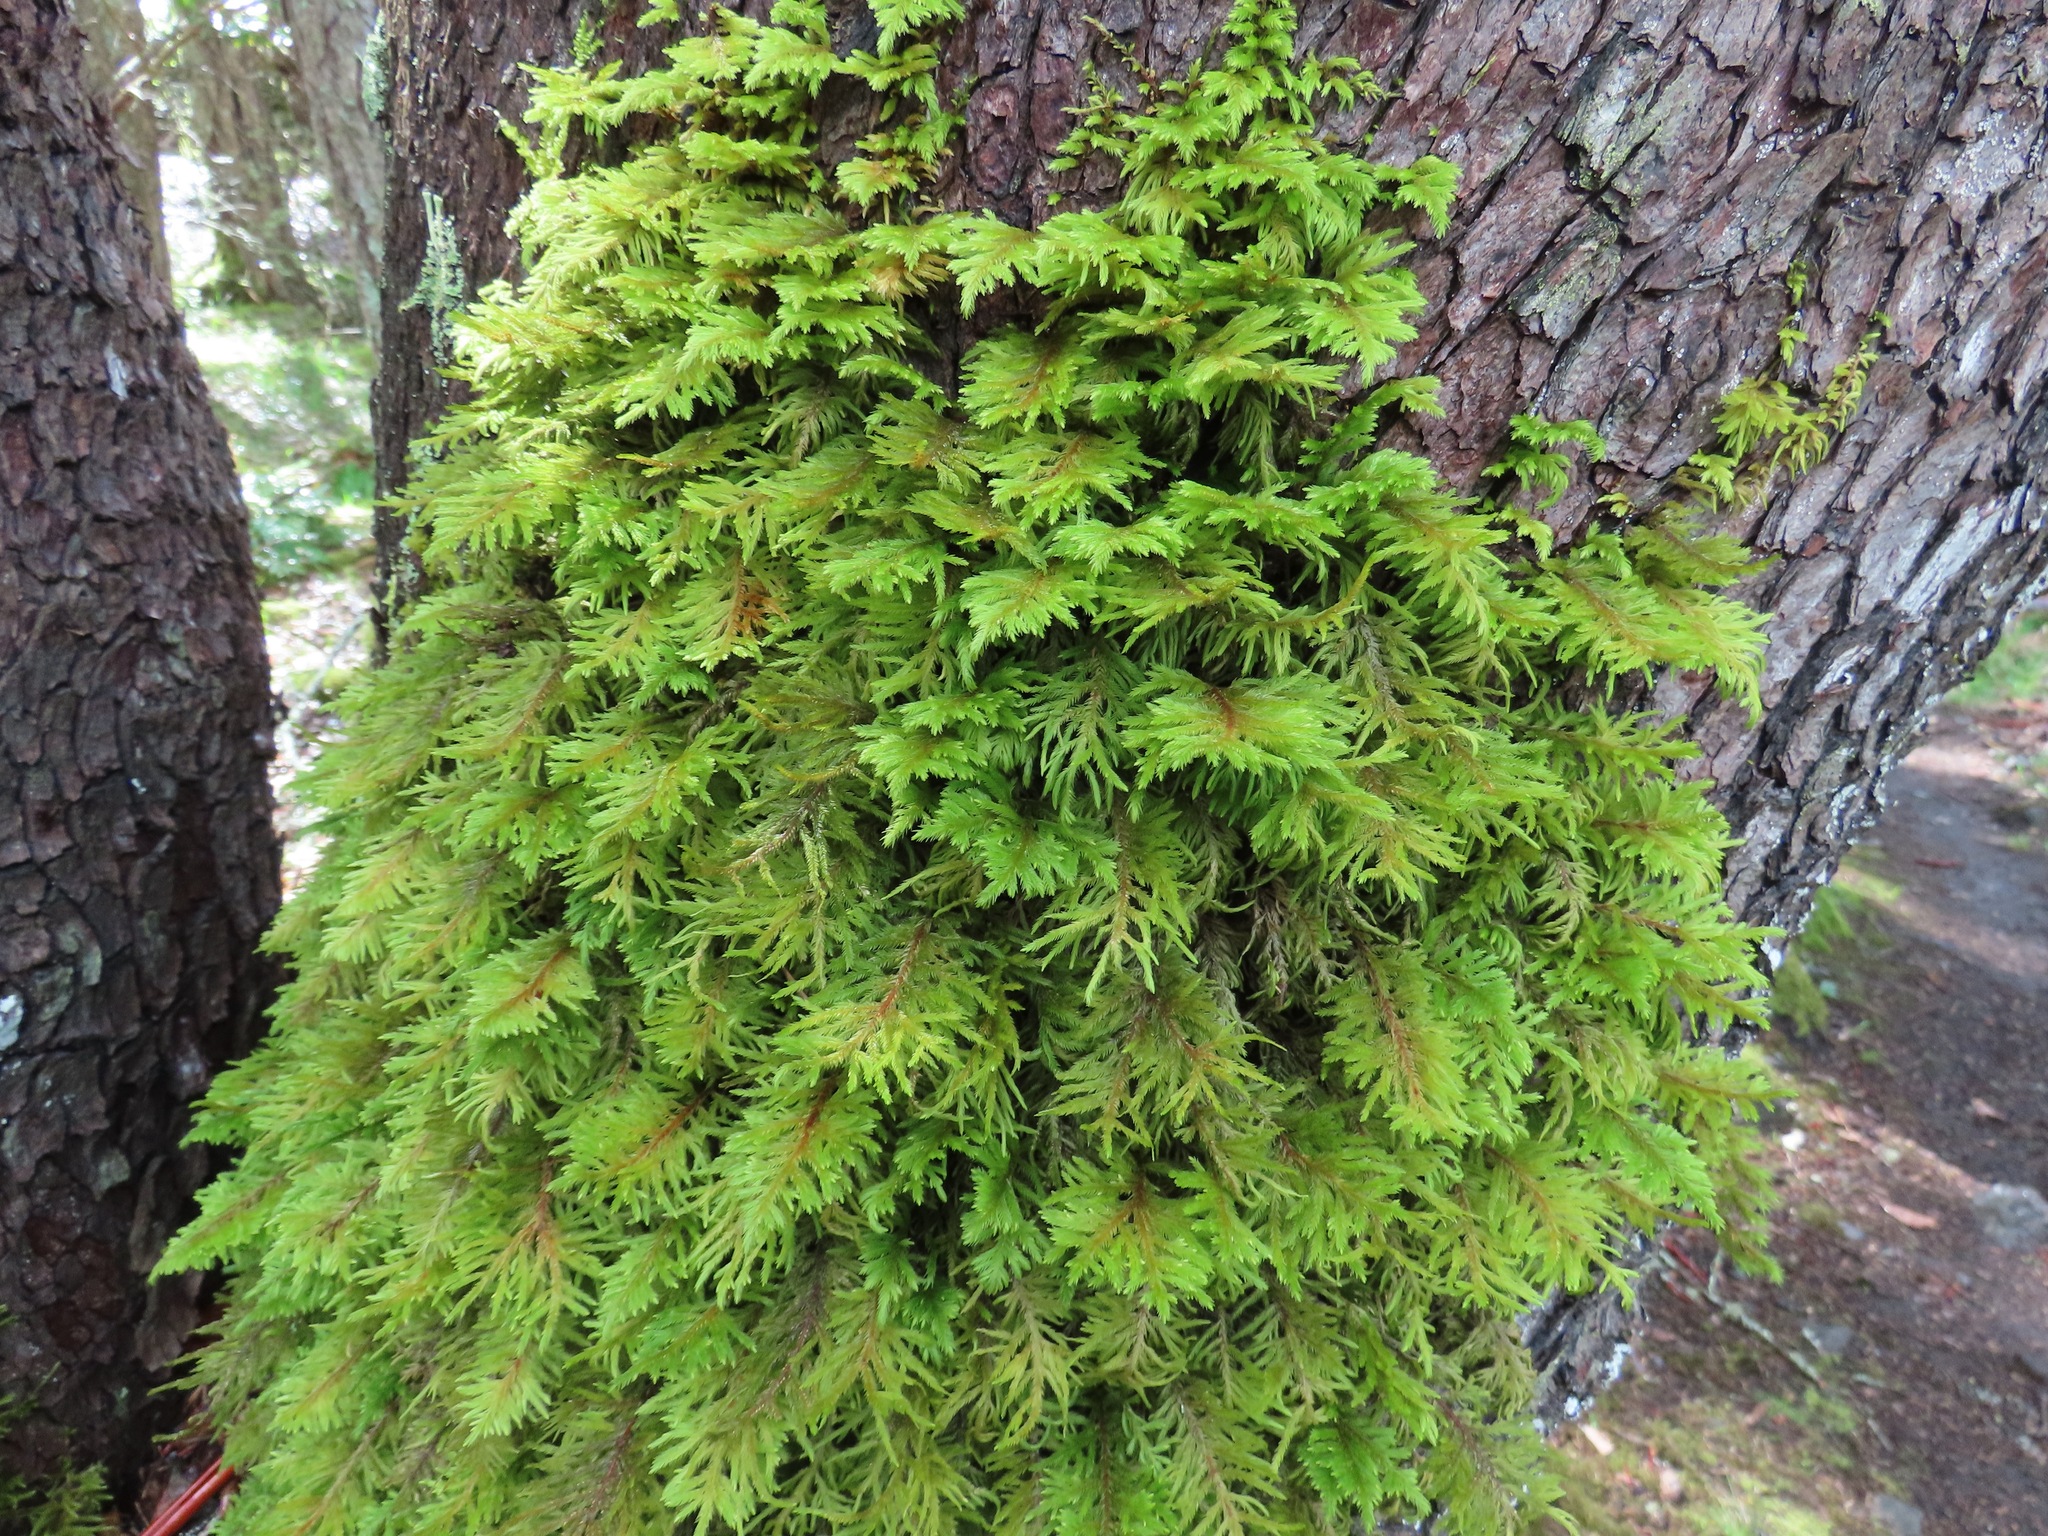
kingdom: Plantae
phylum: Bryophyta
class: Bryopsida
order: Hypnales
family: Cryphaeaceae
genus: Dendroalsia
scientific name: Dendroalsia abietina
